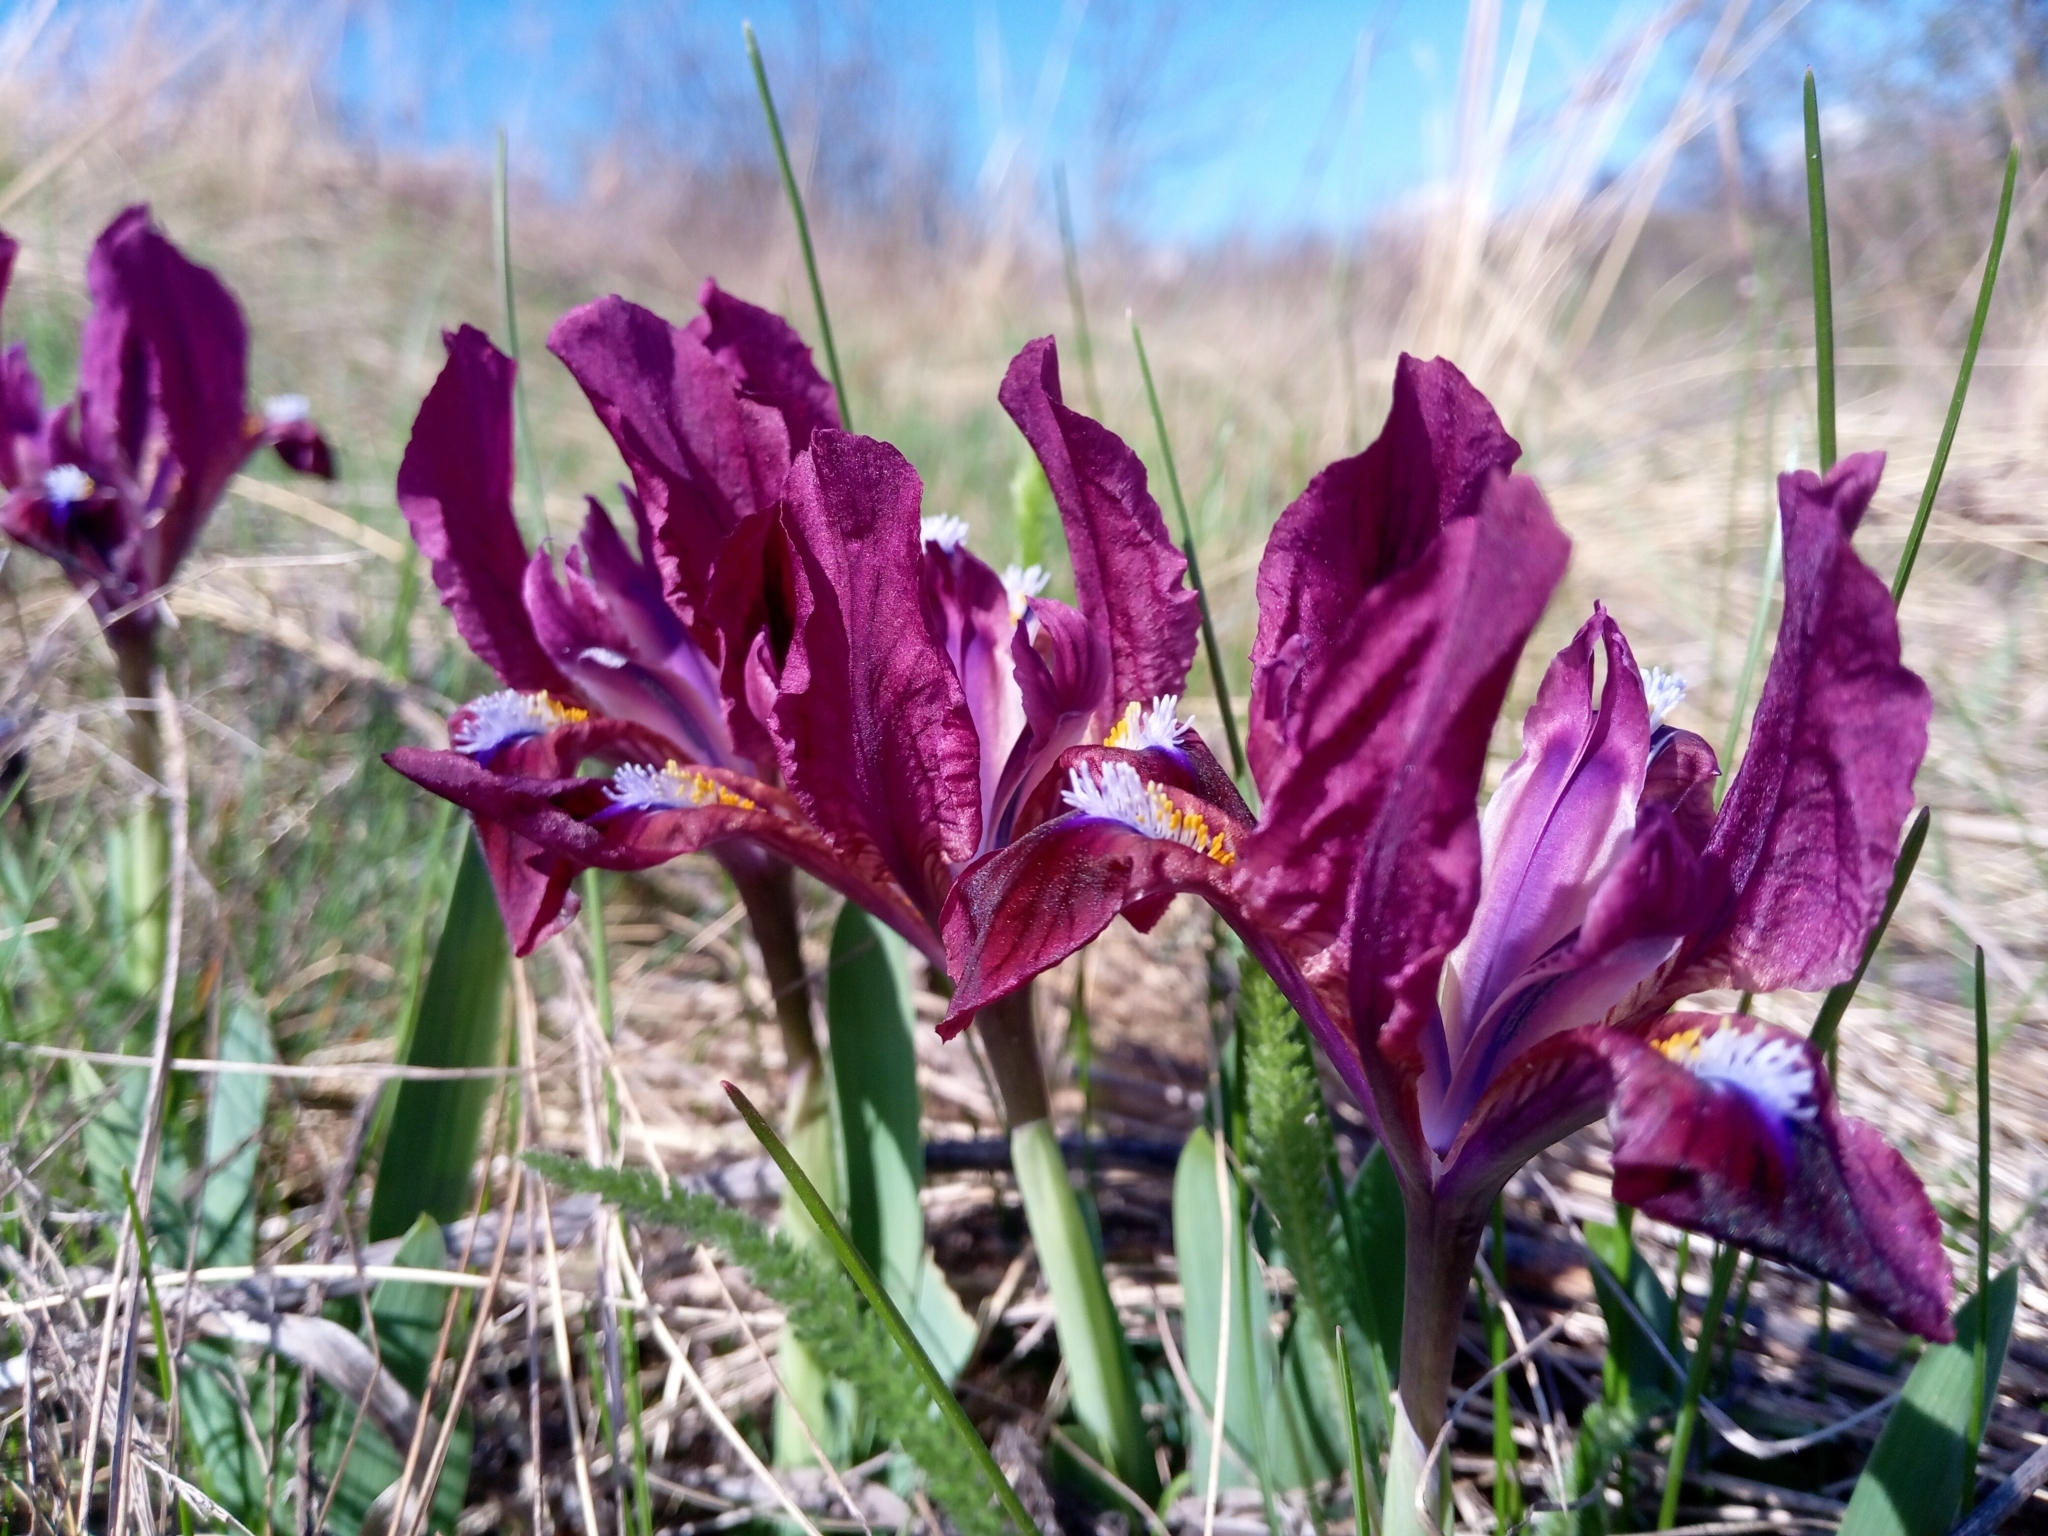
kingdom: Plantae
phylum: Tracheophyta
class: Liliopsida
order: Asparagales
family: Iridaceae
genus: Iris
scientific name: Iris pumila
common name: Dwarf iris
